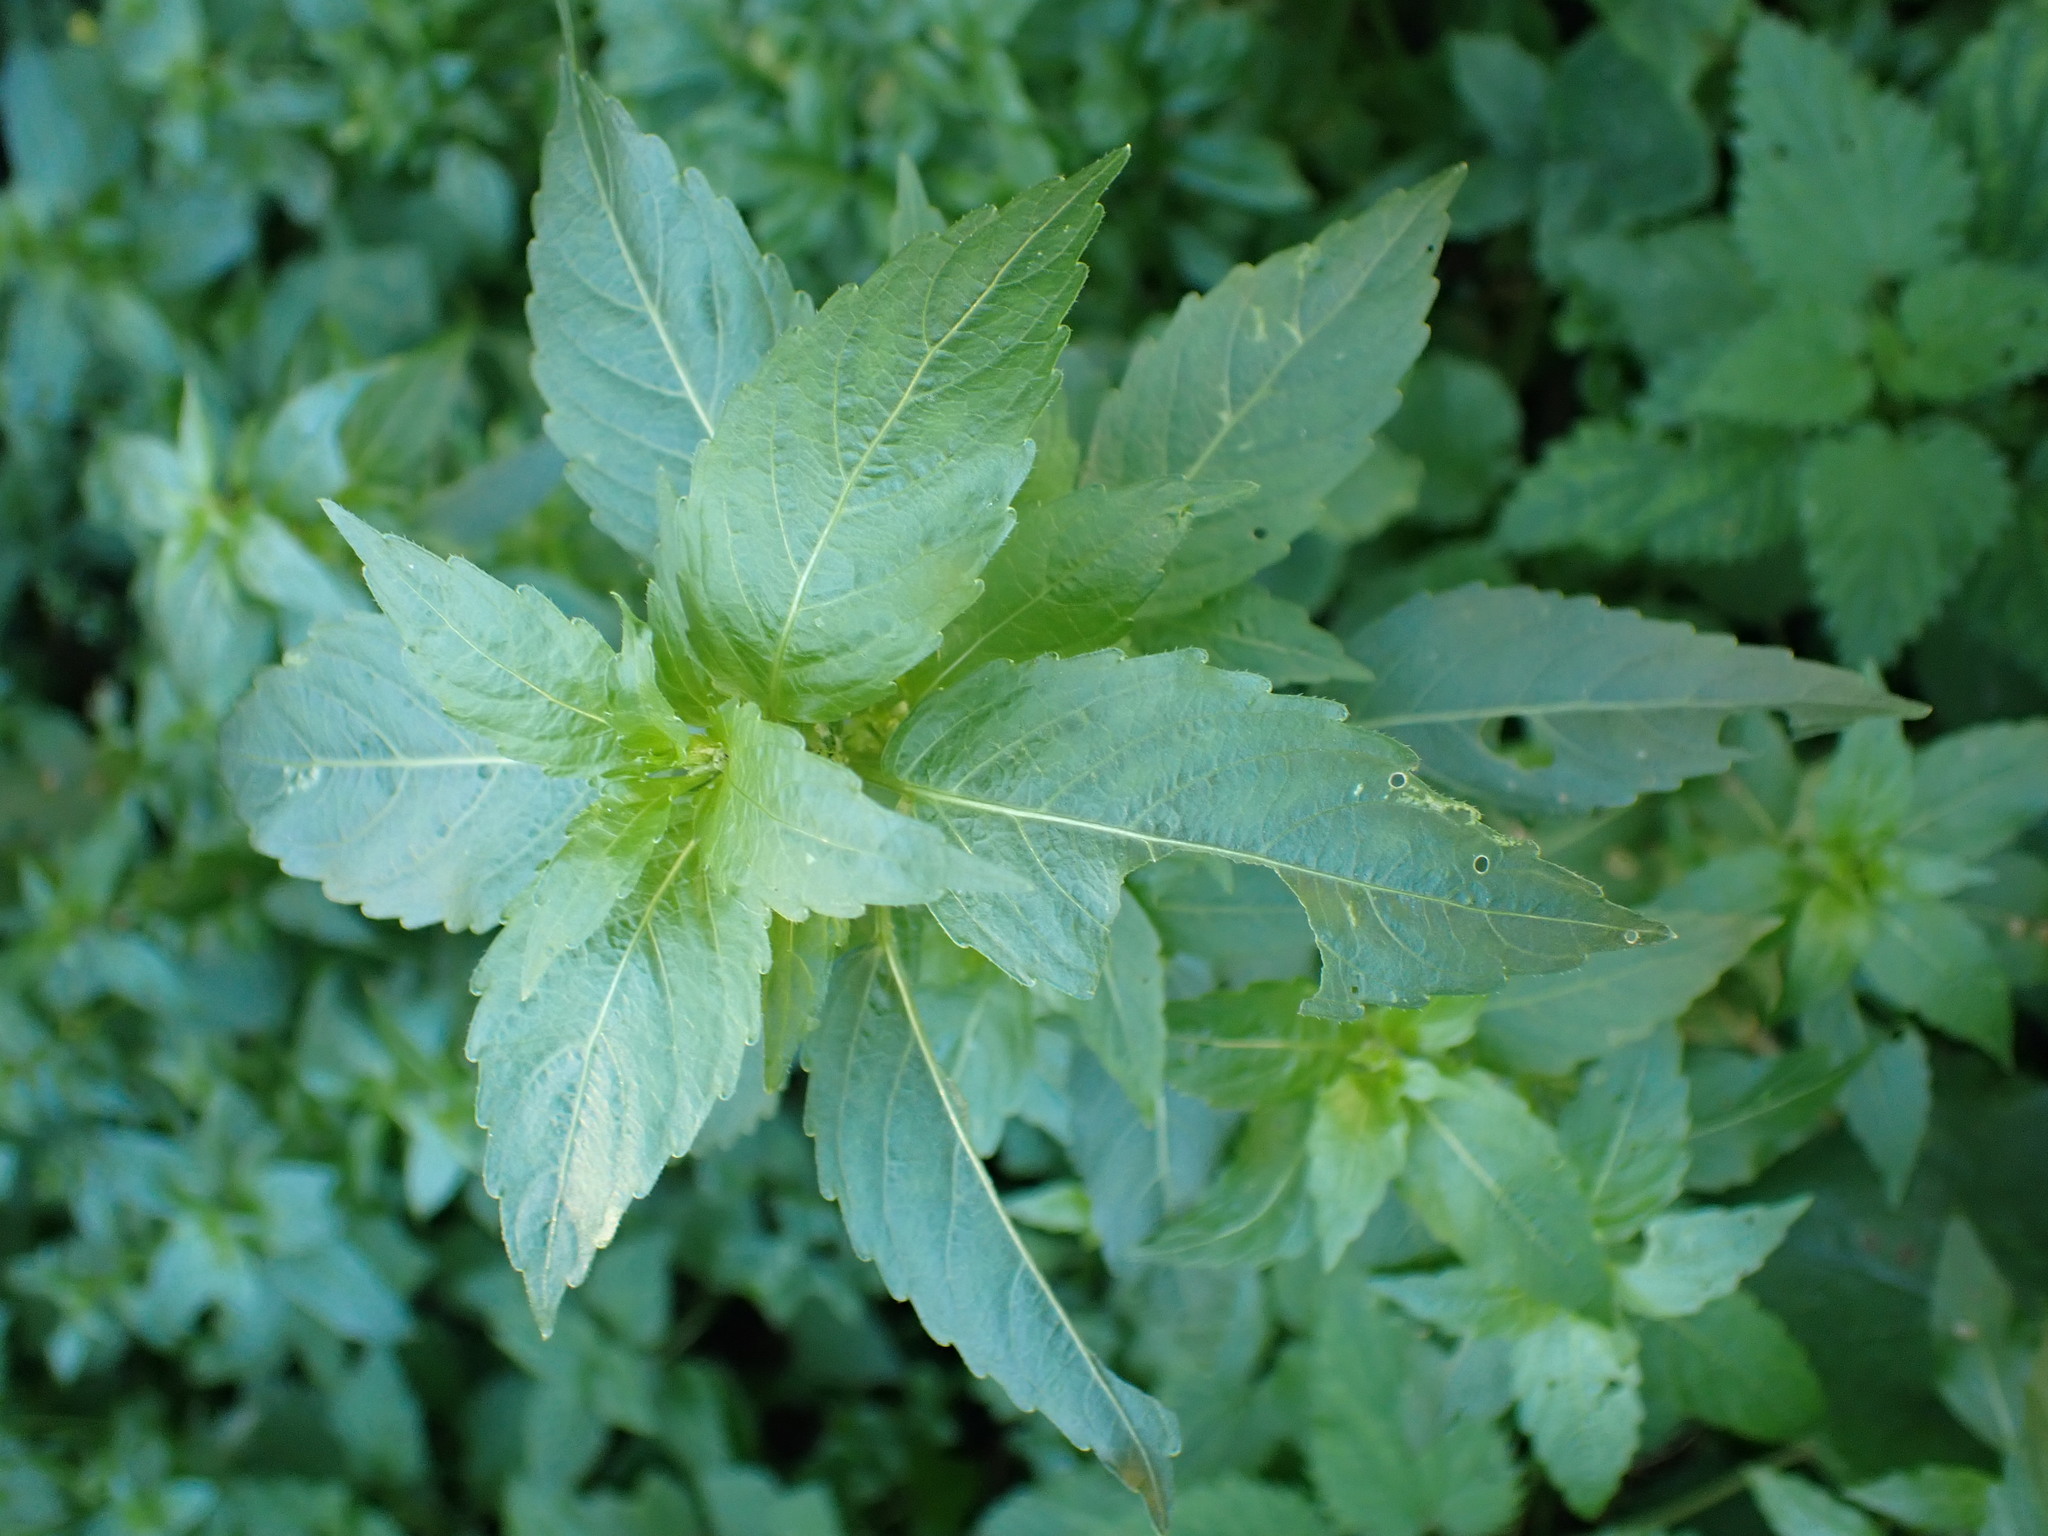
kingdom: Plantae
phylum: Tracheophyta
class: Magnoliopsida
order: Malpighiales
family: Euphorbiaceae
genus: Mercurialis
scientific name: Mercurialis annua
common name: Annual mercury
